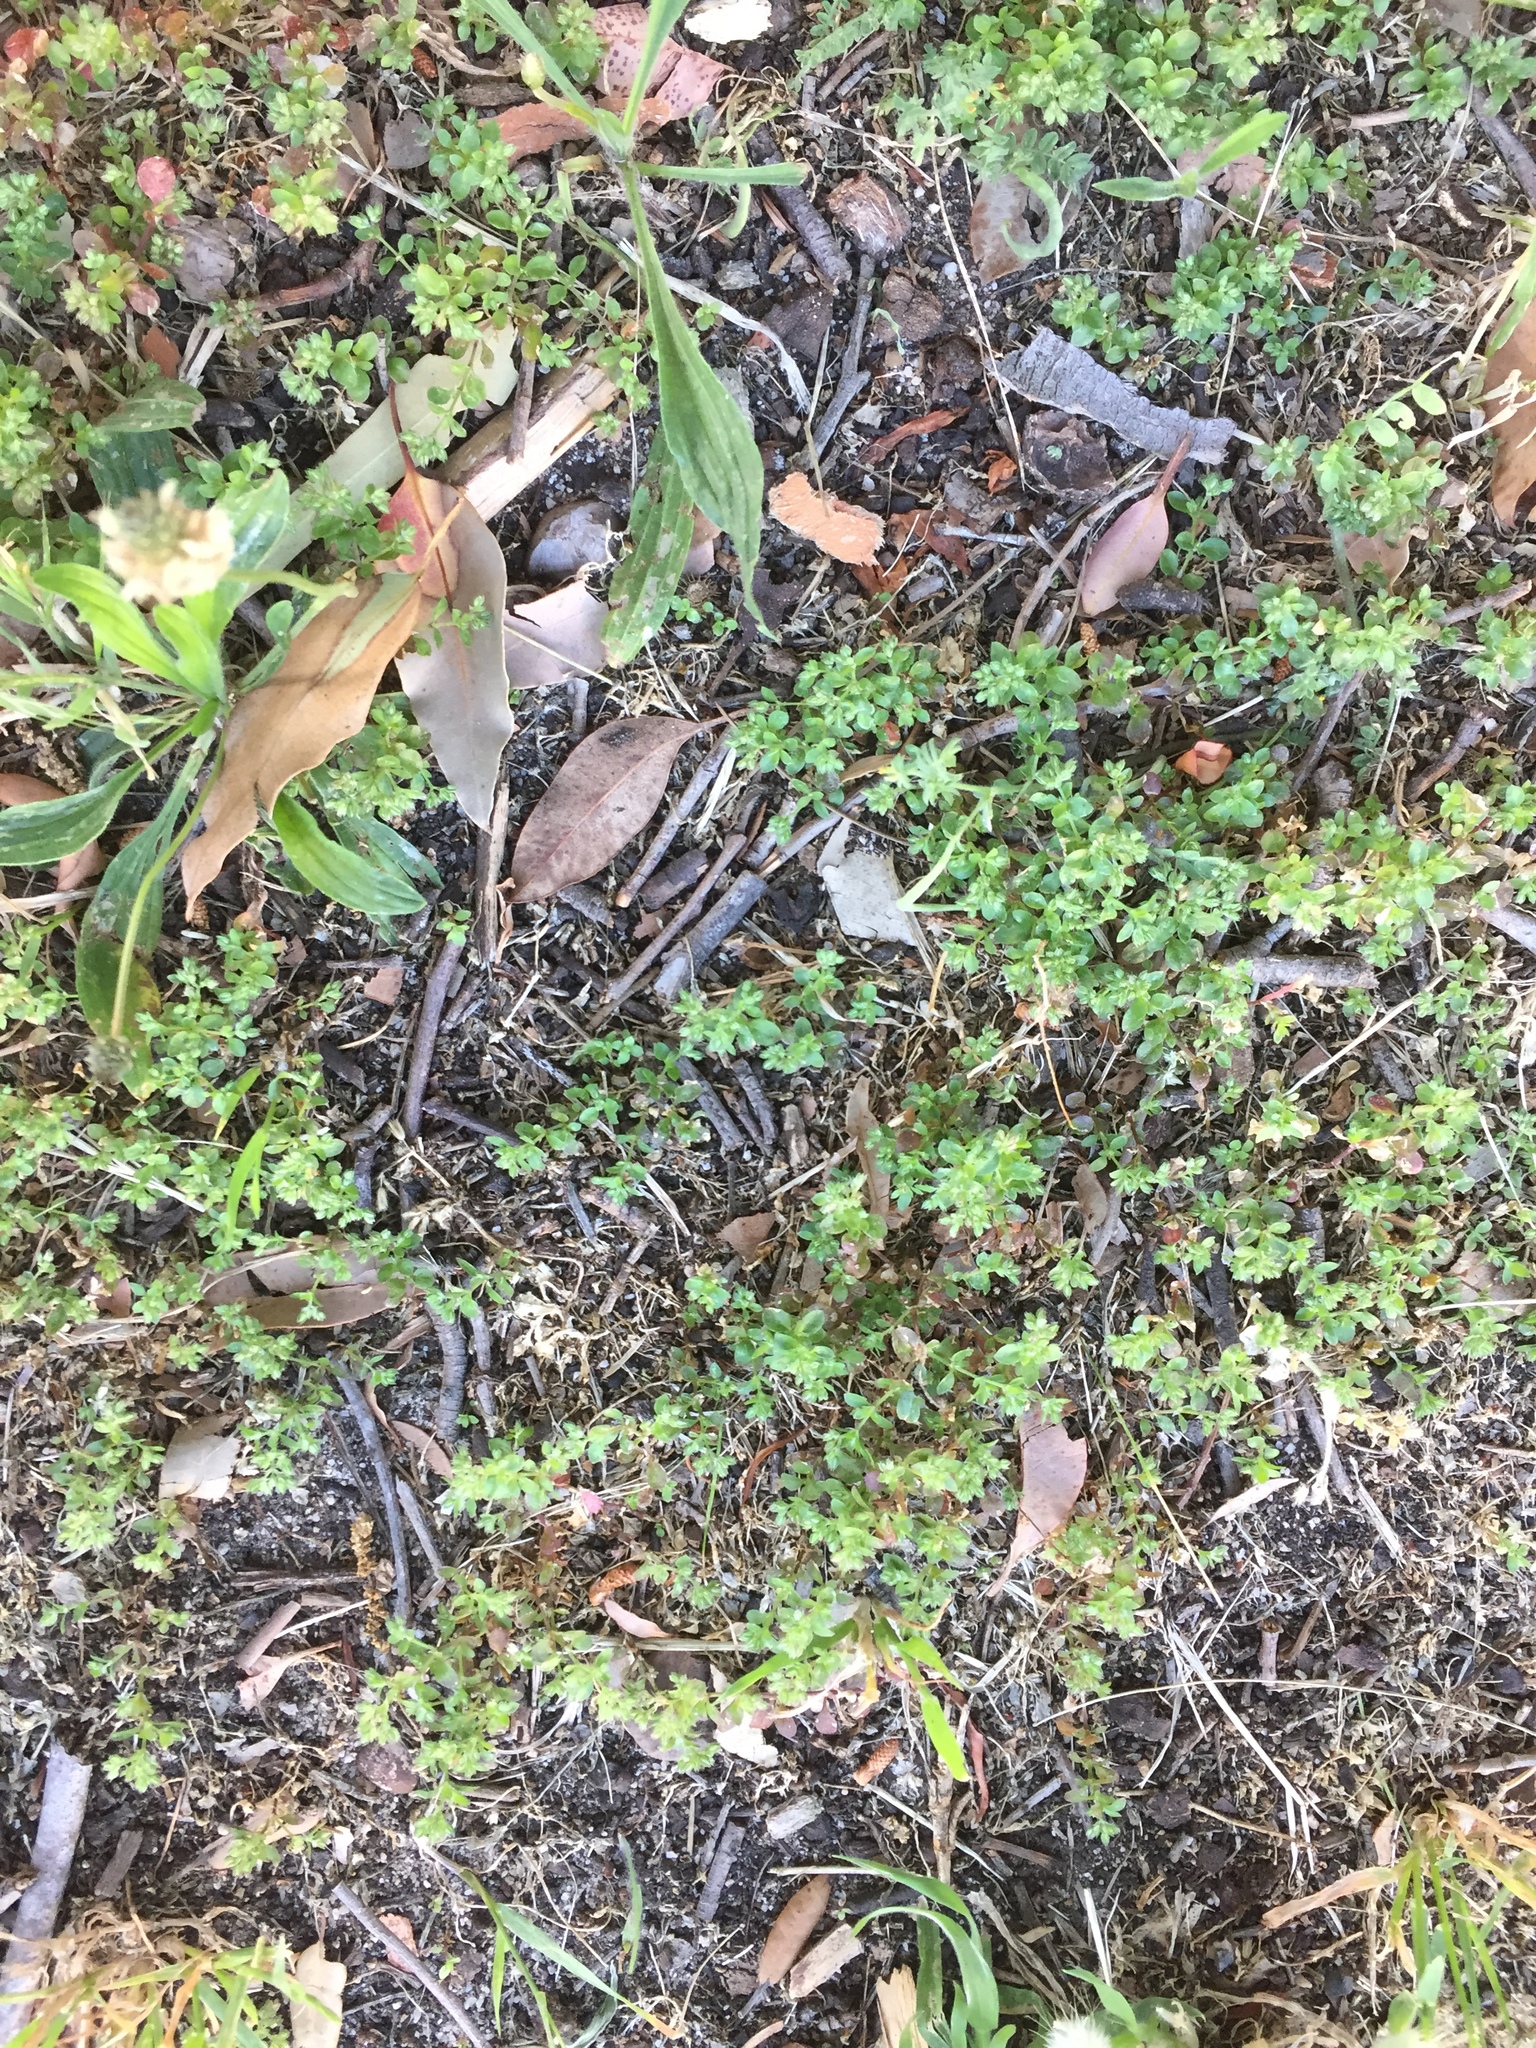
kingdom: Plantae
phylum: Tracheophyta
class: Magnoliopsida
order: Caryophyllales
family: Caryophyllaceae
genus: Polycarpon
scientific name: Polycarpon tetraphyllum
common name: Four-leaved all-seed
